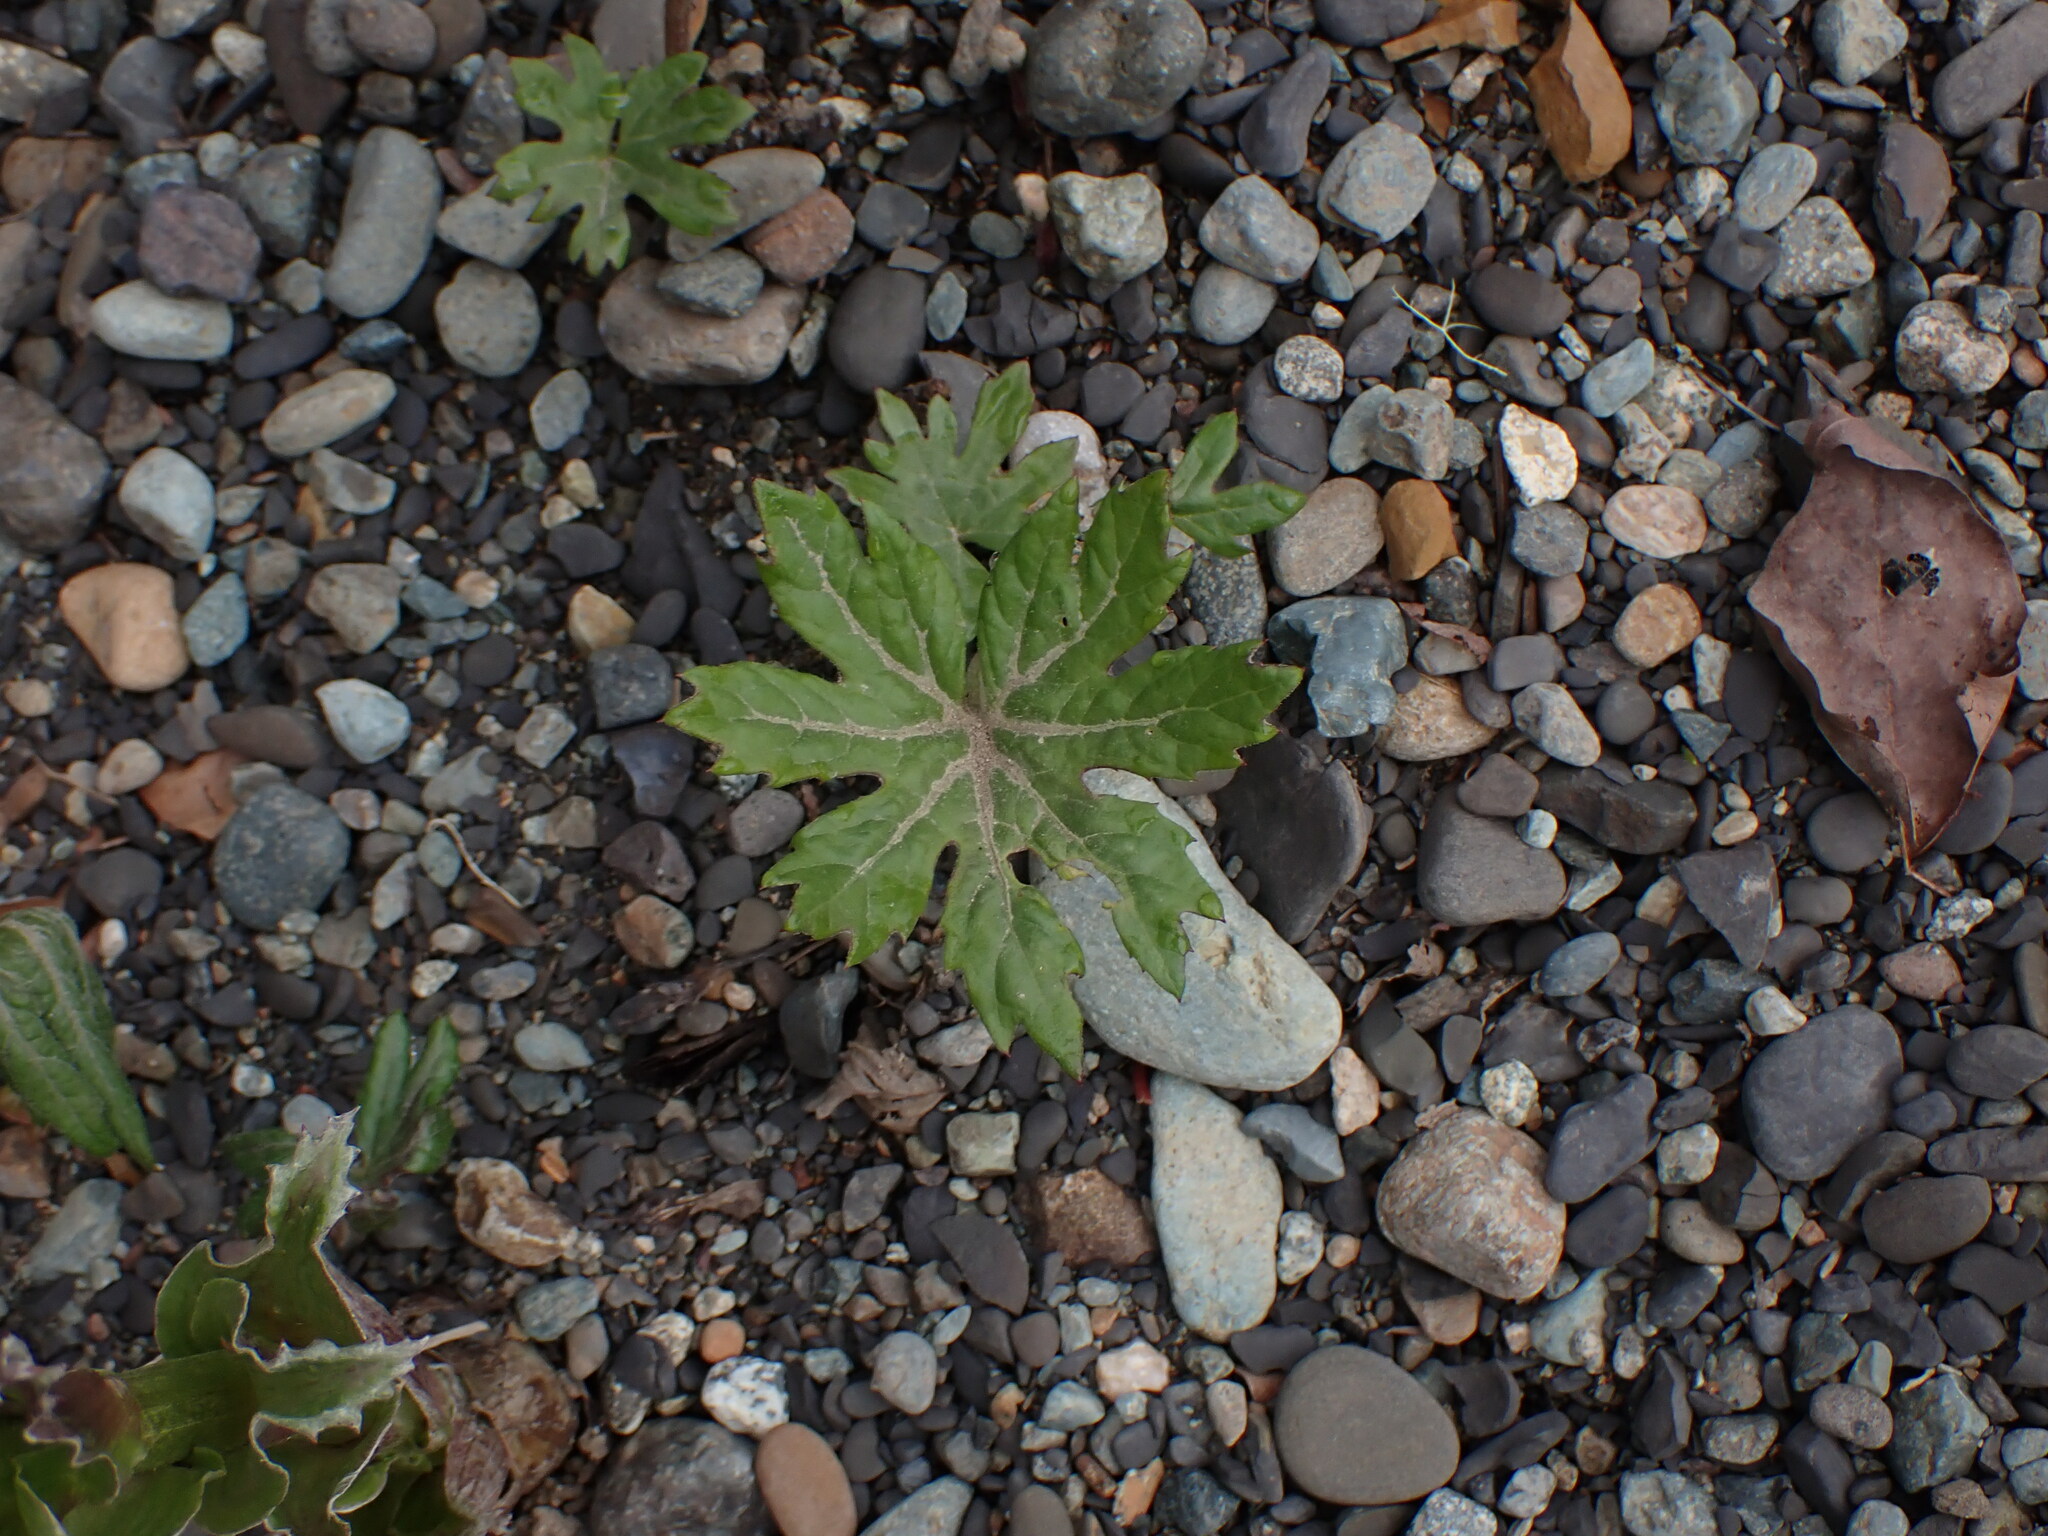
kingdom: Plantae
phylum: Tracheophyta
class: Magnoliopsida
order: Asterales
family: Asteraceae
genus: Petasites
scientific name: Petasites frigidus
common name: Arctic butterbur
